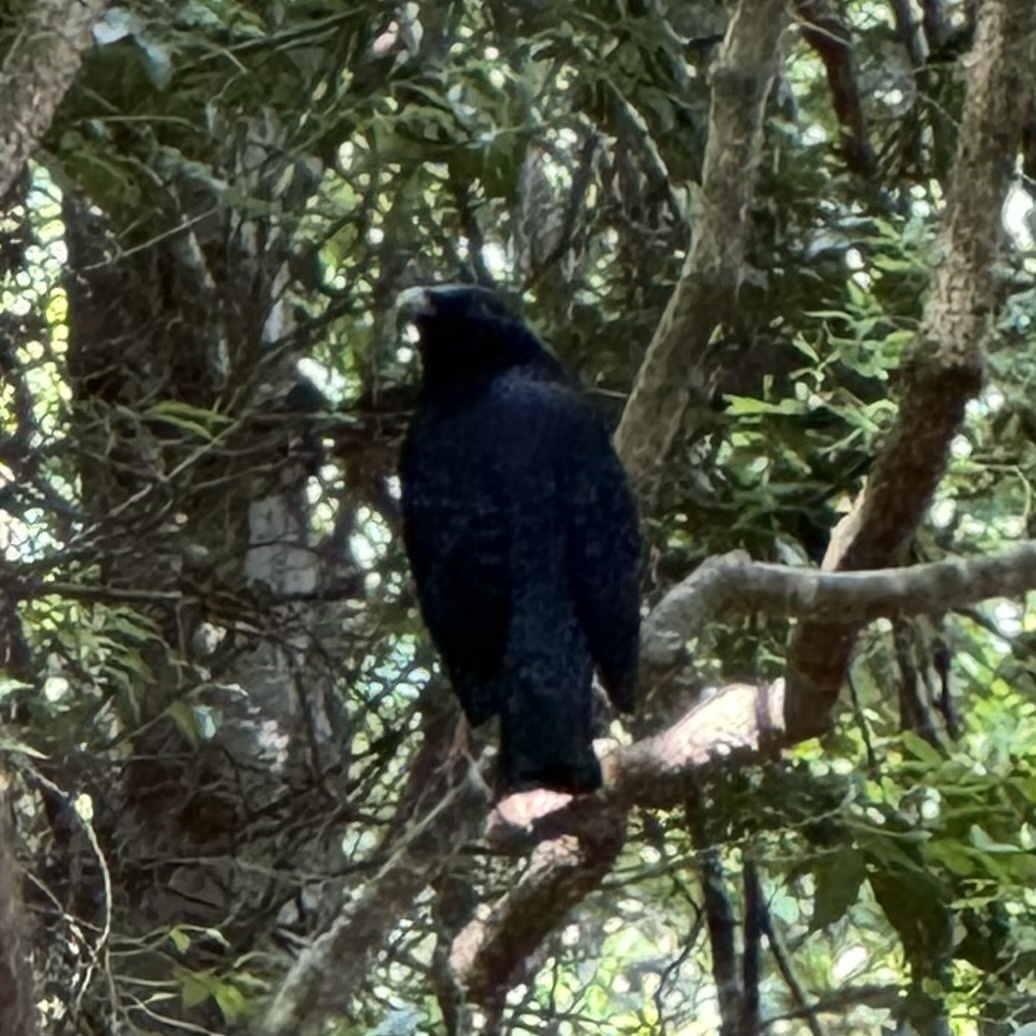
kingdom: Animalia
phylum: Chordata
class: Aves
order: Passeriformes
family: Ptilonorhynchidae
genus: Ptilonorhynchus
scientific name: Ptilonorhynchus violaceus
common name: Satin bowerbird
